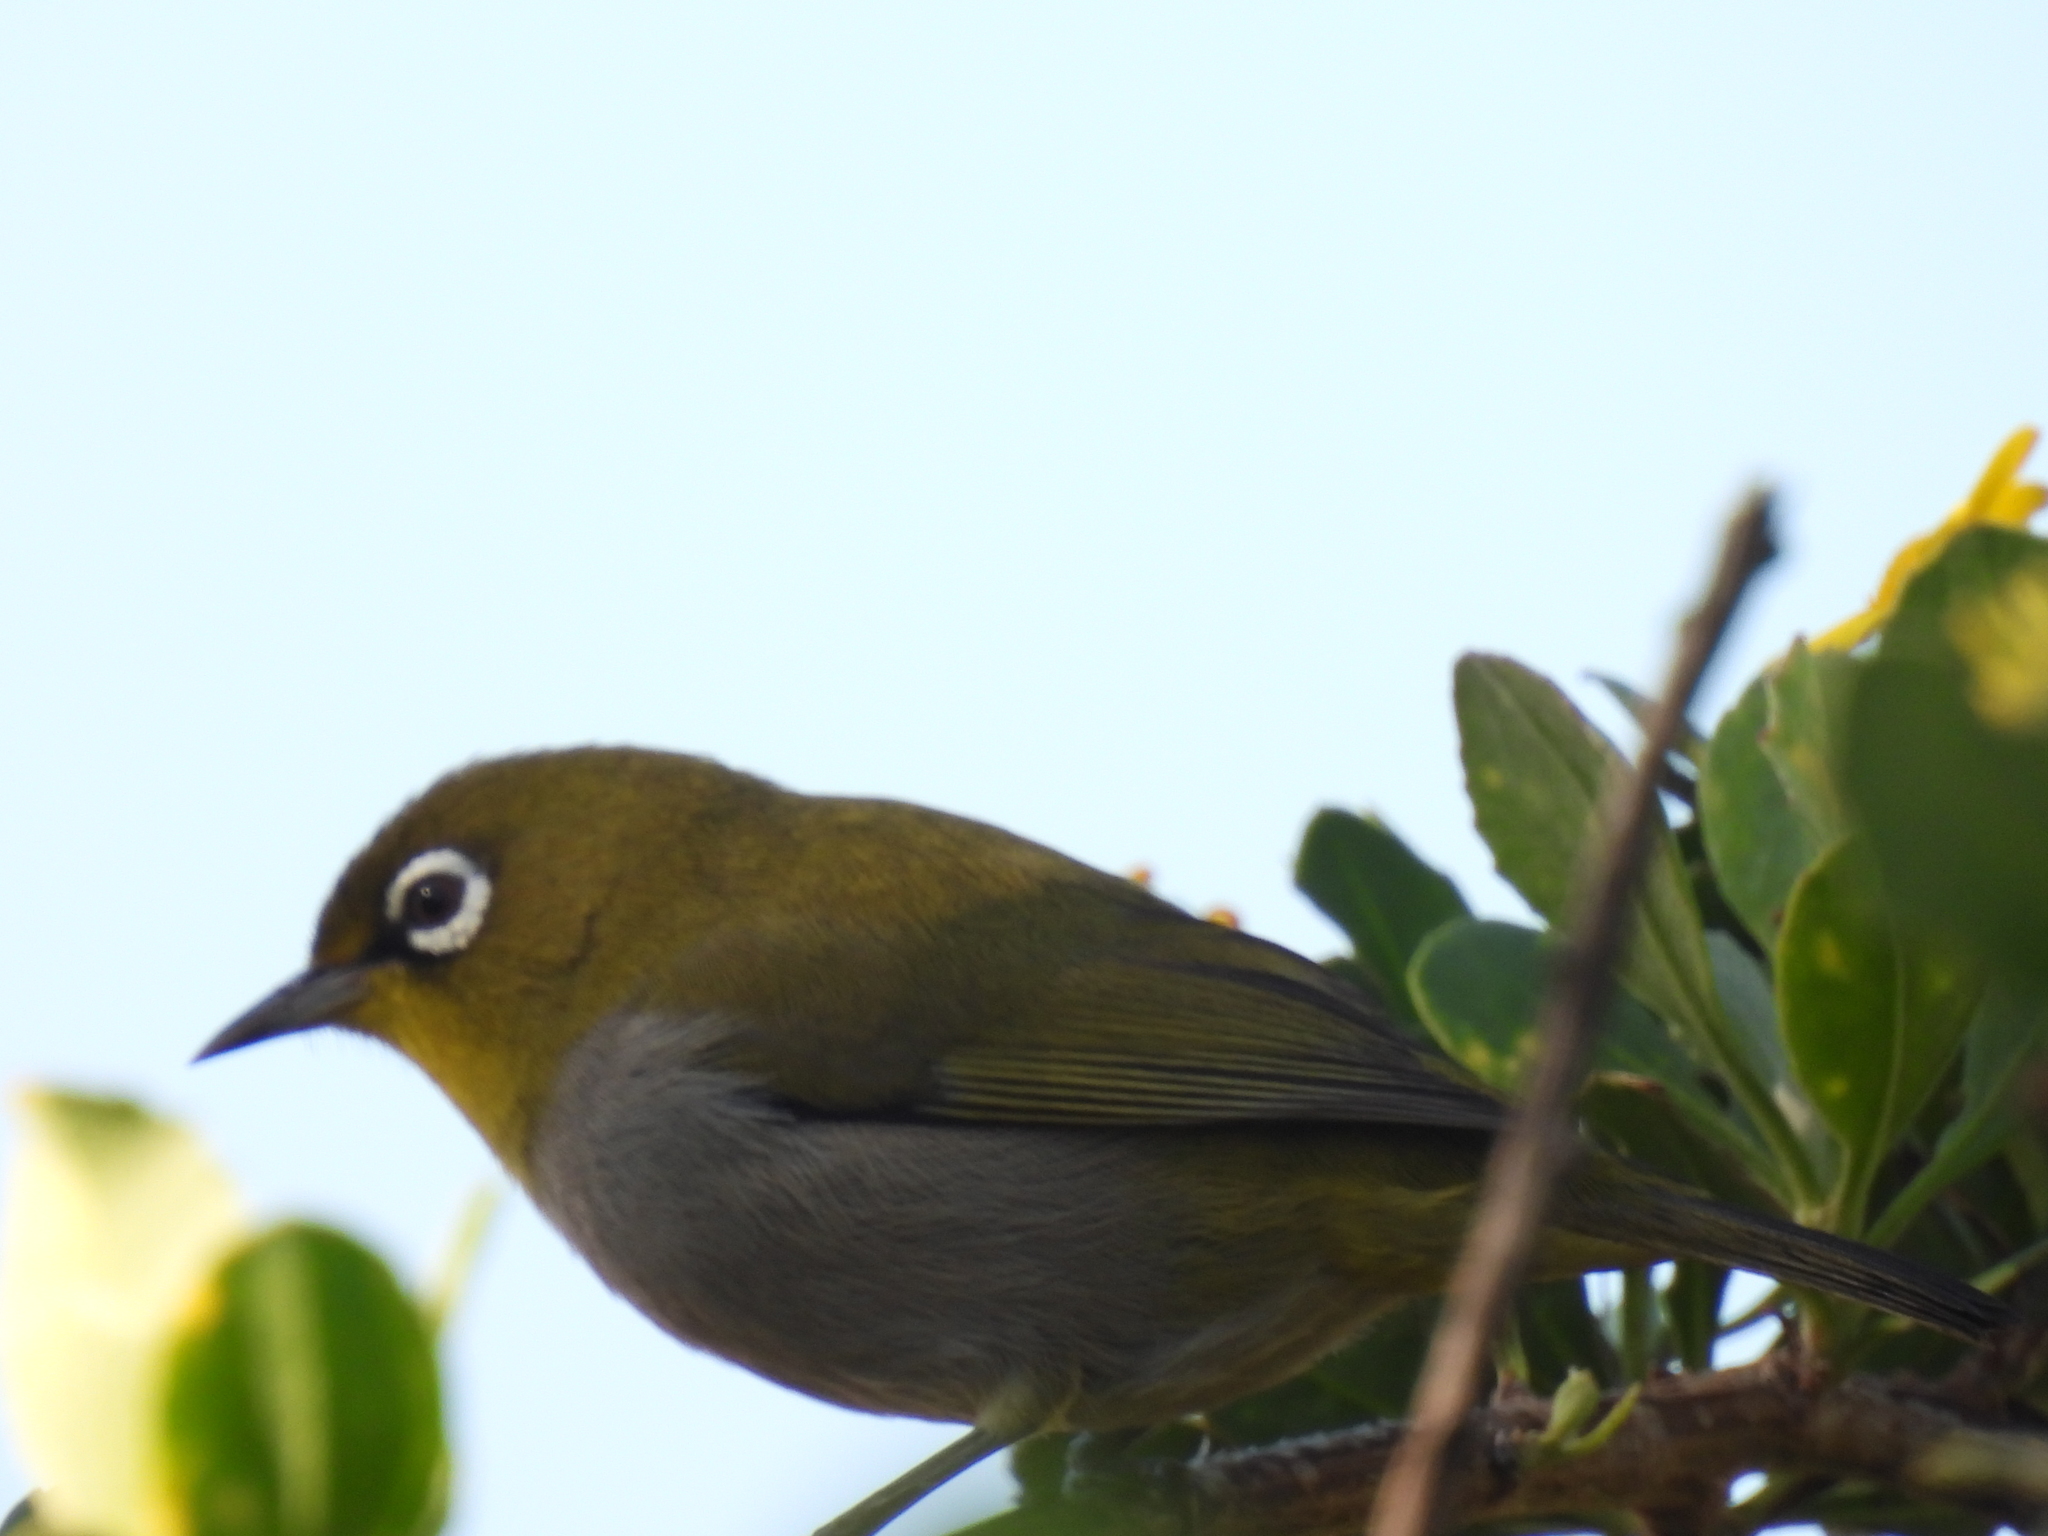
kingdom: Animalia
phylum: Chordata
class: Aves
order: Passeriformes
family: Zosteropidae
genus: Zosterops
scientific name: Zosterops virens
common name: Cape white-eye
